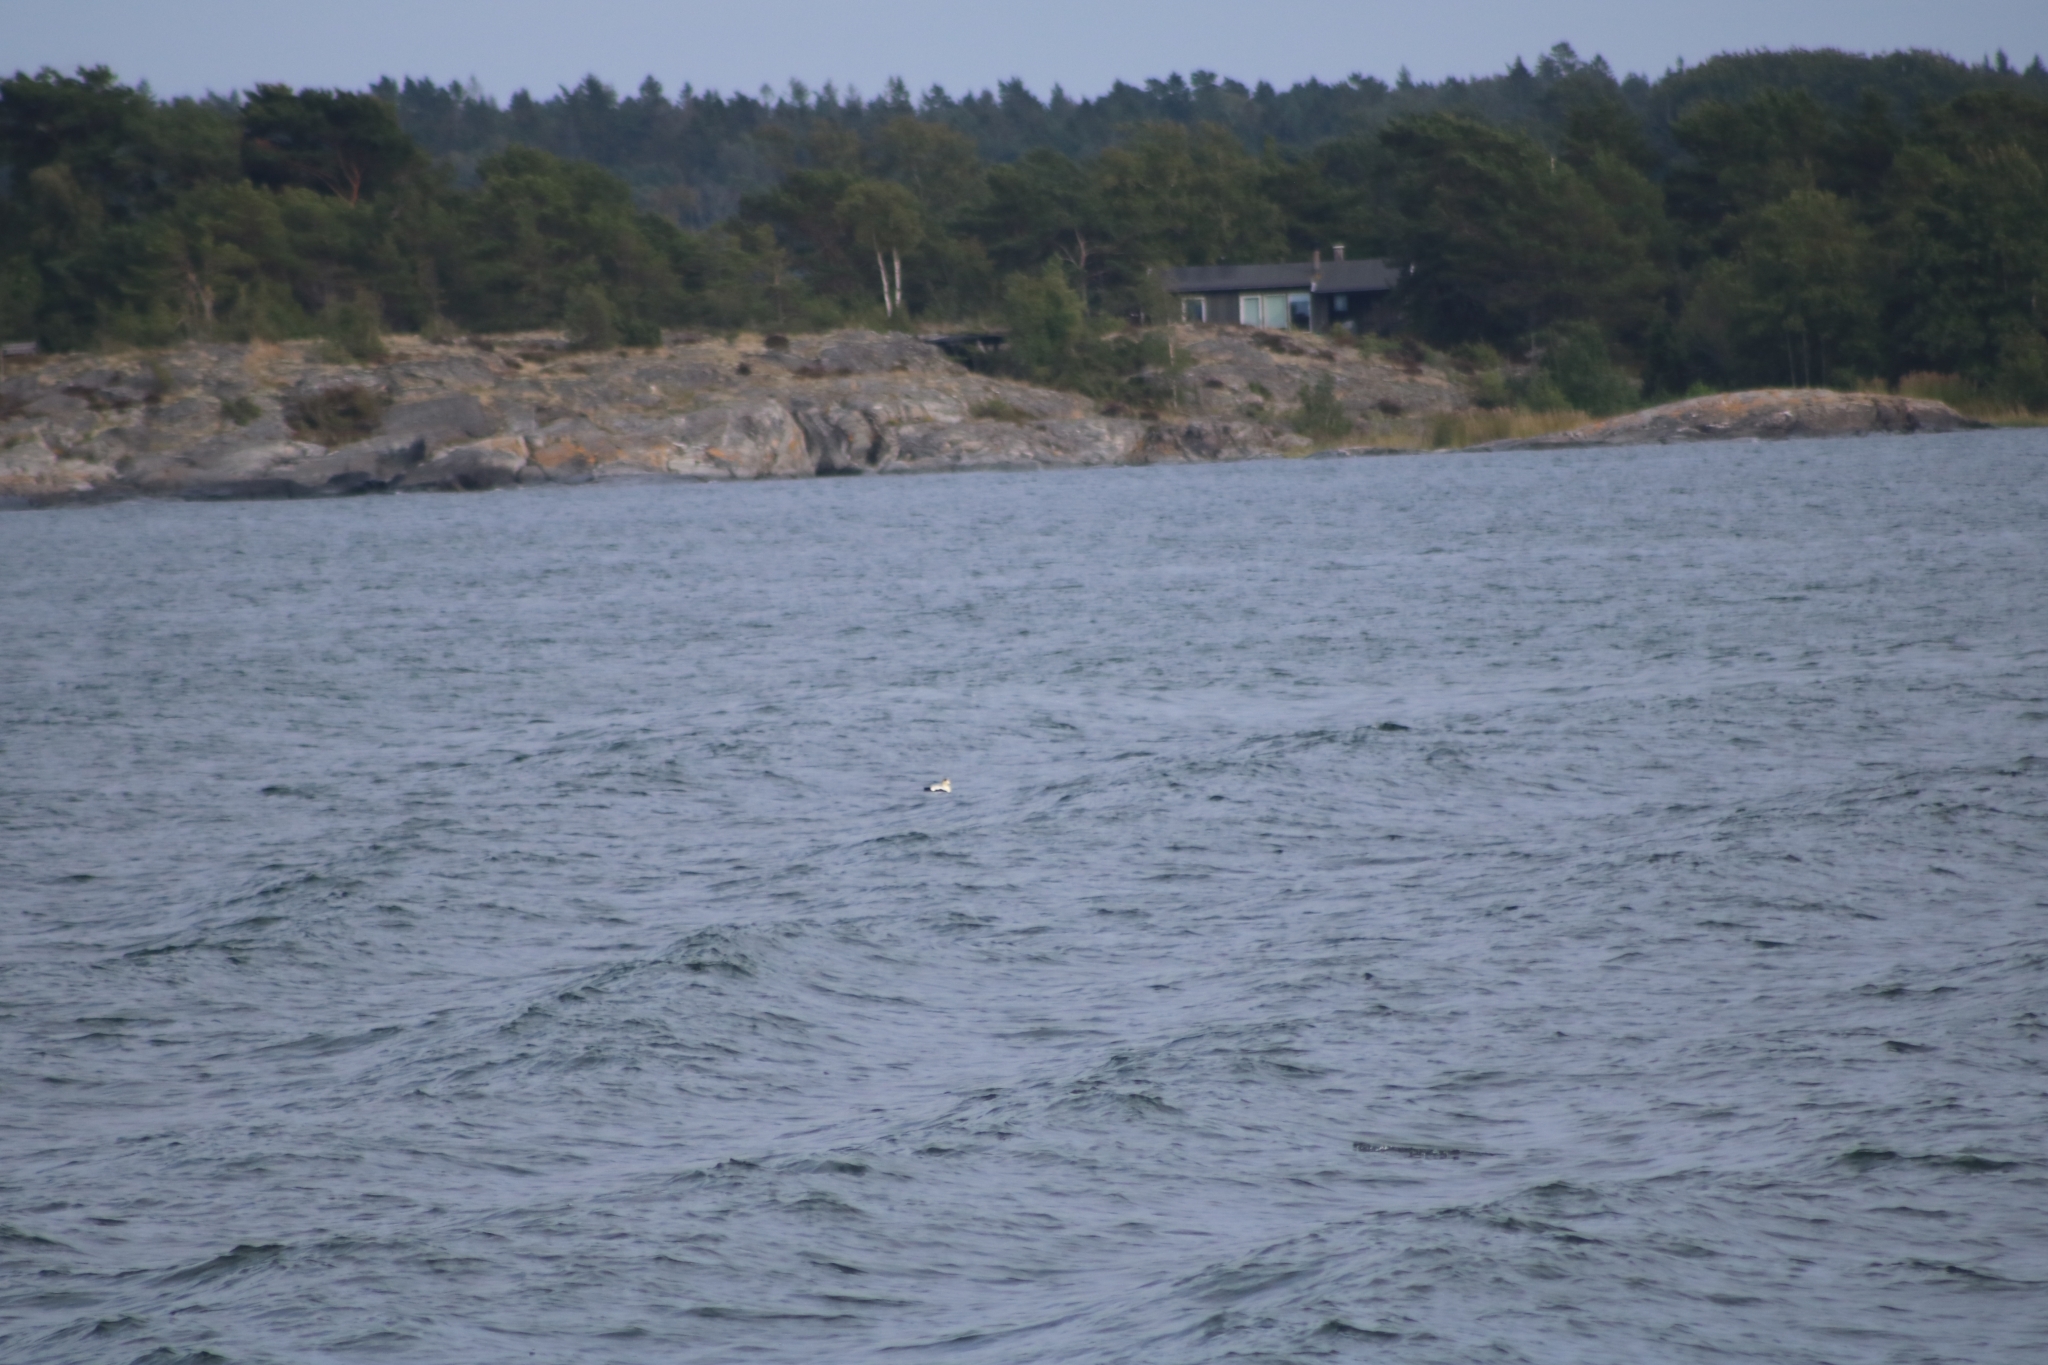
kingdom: Animalia
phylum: Chordata
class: Aves
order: Anseriformes
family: Anatidae
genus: Somateria
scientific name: Somateria mollissima
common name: Common eider
